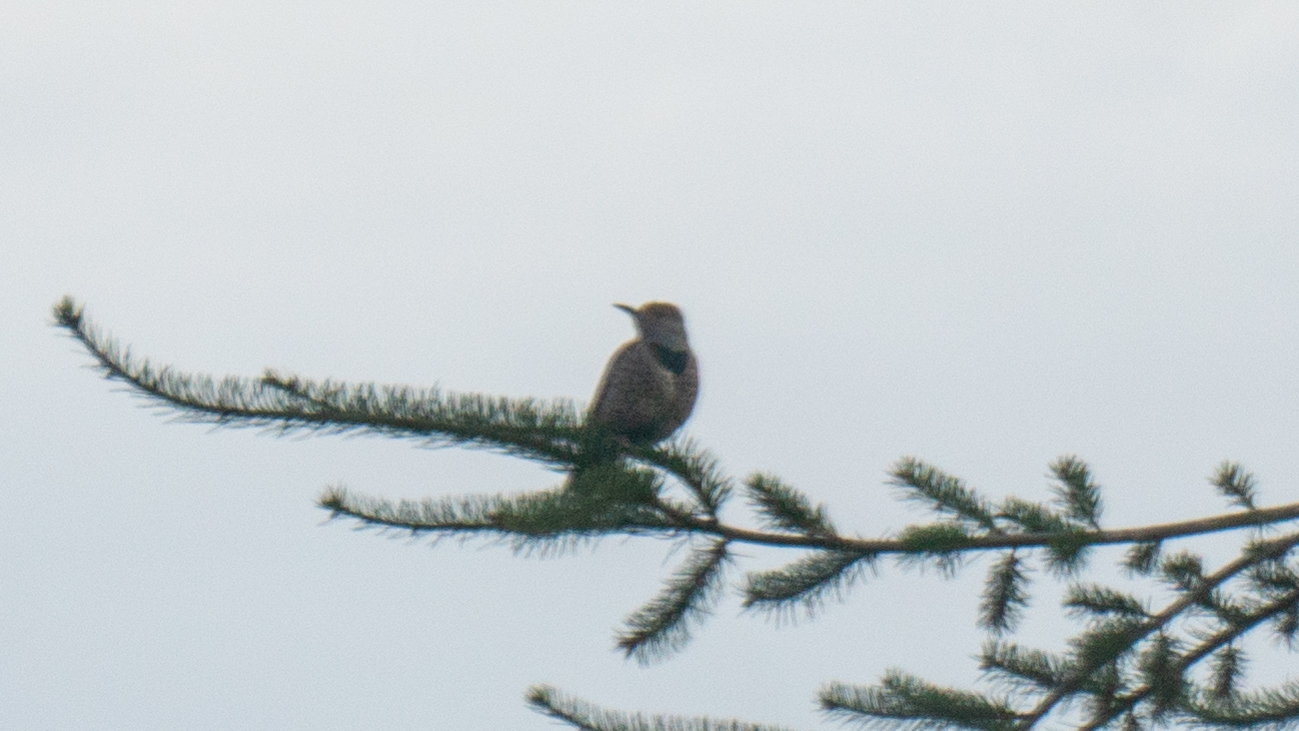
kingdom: Animalia
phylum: Chordata
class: Aves
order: Piciformes
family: Picidae
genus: Colaptes
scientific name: Colaptes auratus
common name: Northern flicker
